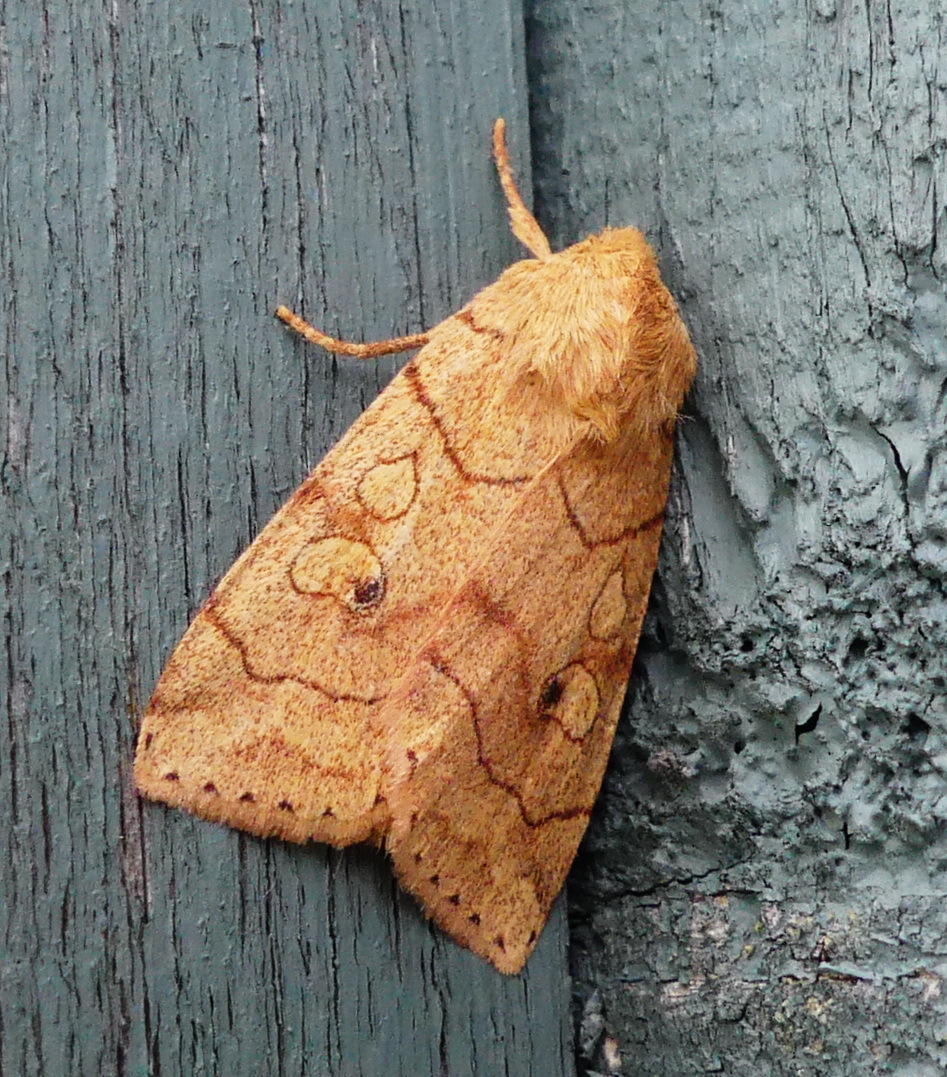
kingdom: Animalia
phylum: Arthropoda
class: Insecta
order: Lepidoptera
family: Noctuidae
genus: Enargia
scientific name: Enargia fausta
